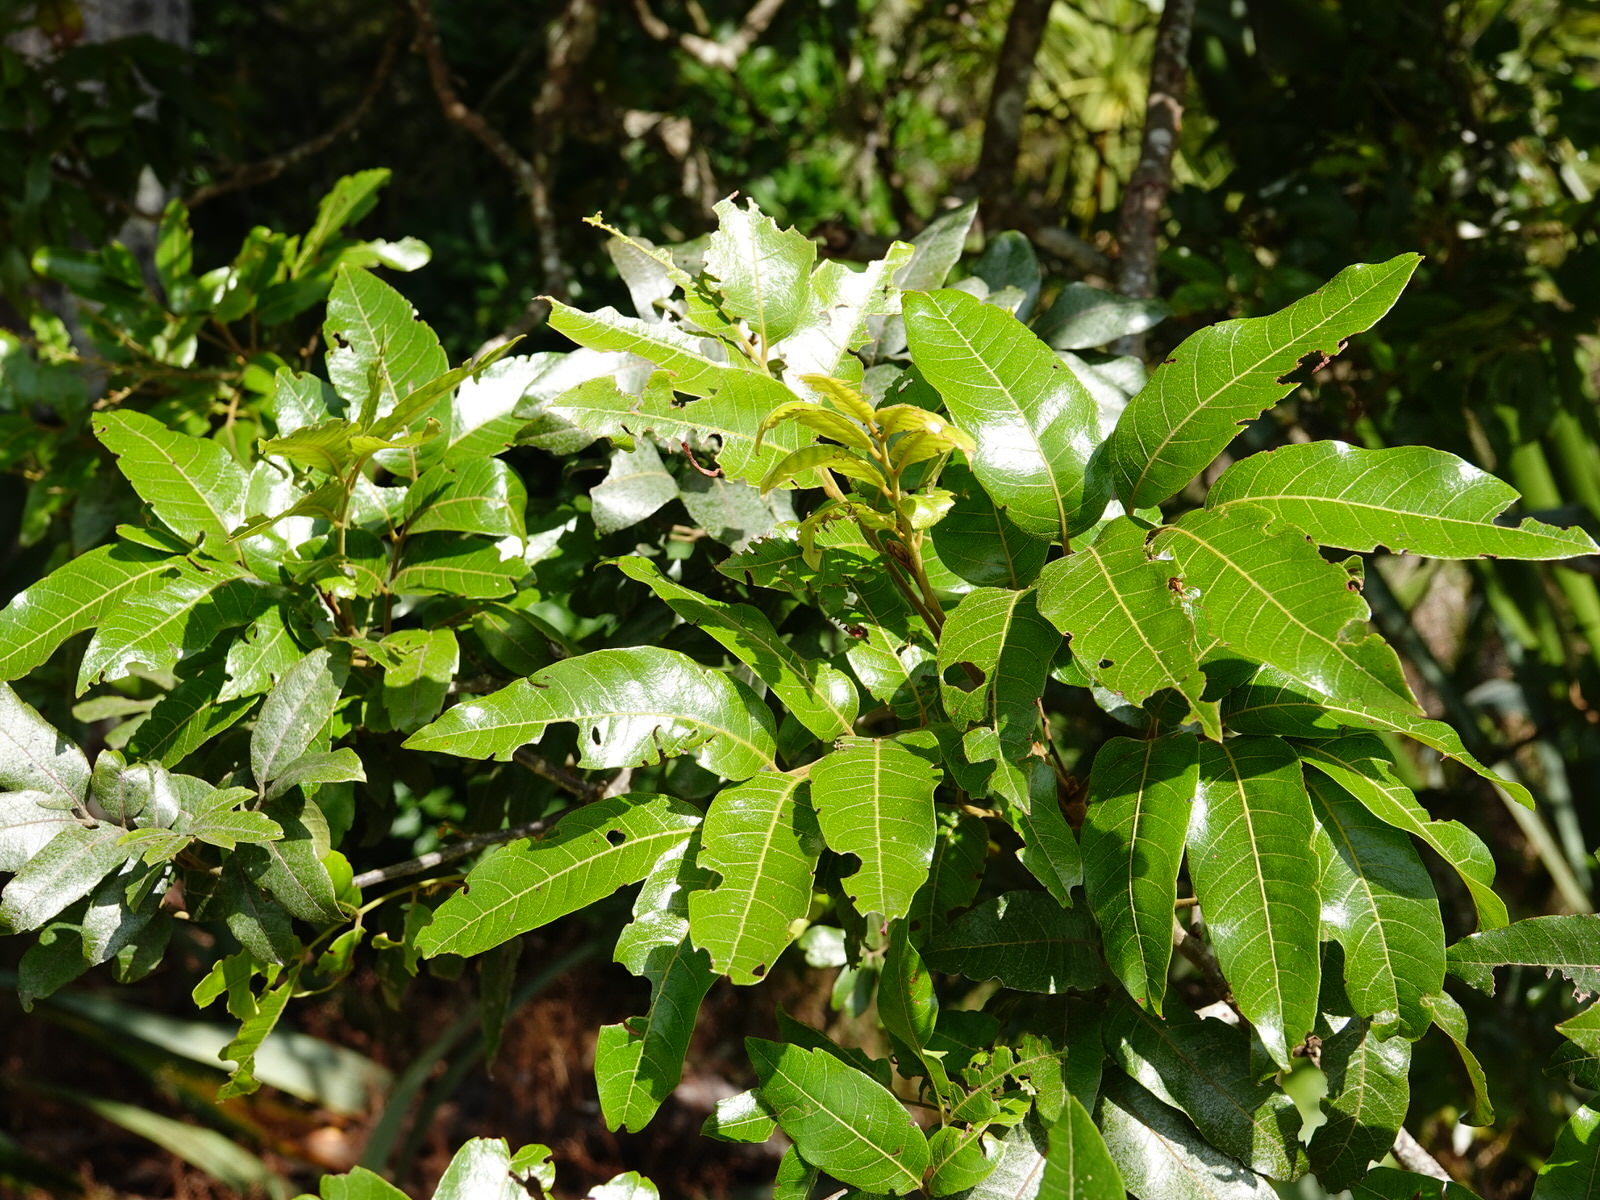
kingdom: Plantae
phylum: Tracheophyta
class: Magnoliopsida
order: Sapindales
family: Sapindaceae
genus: Alectryon
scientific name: Alectryon excelsus
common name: Three kings titoki
